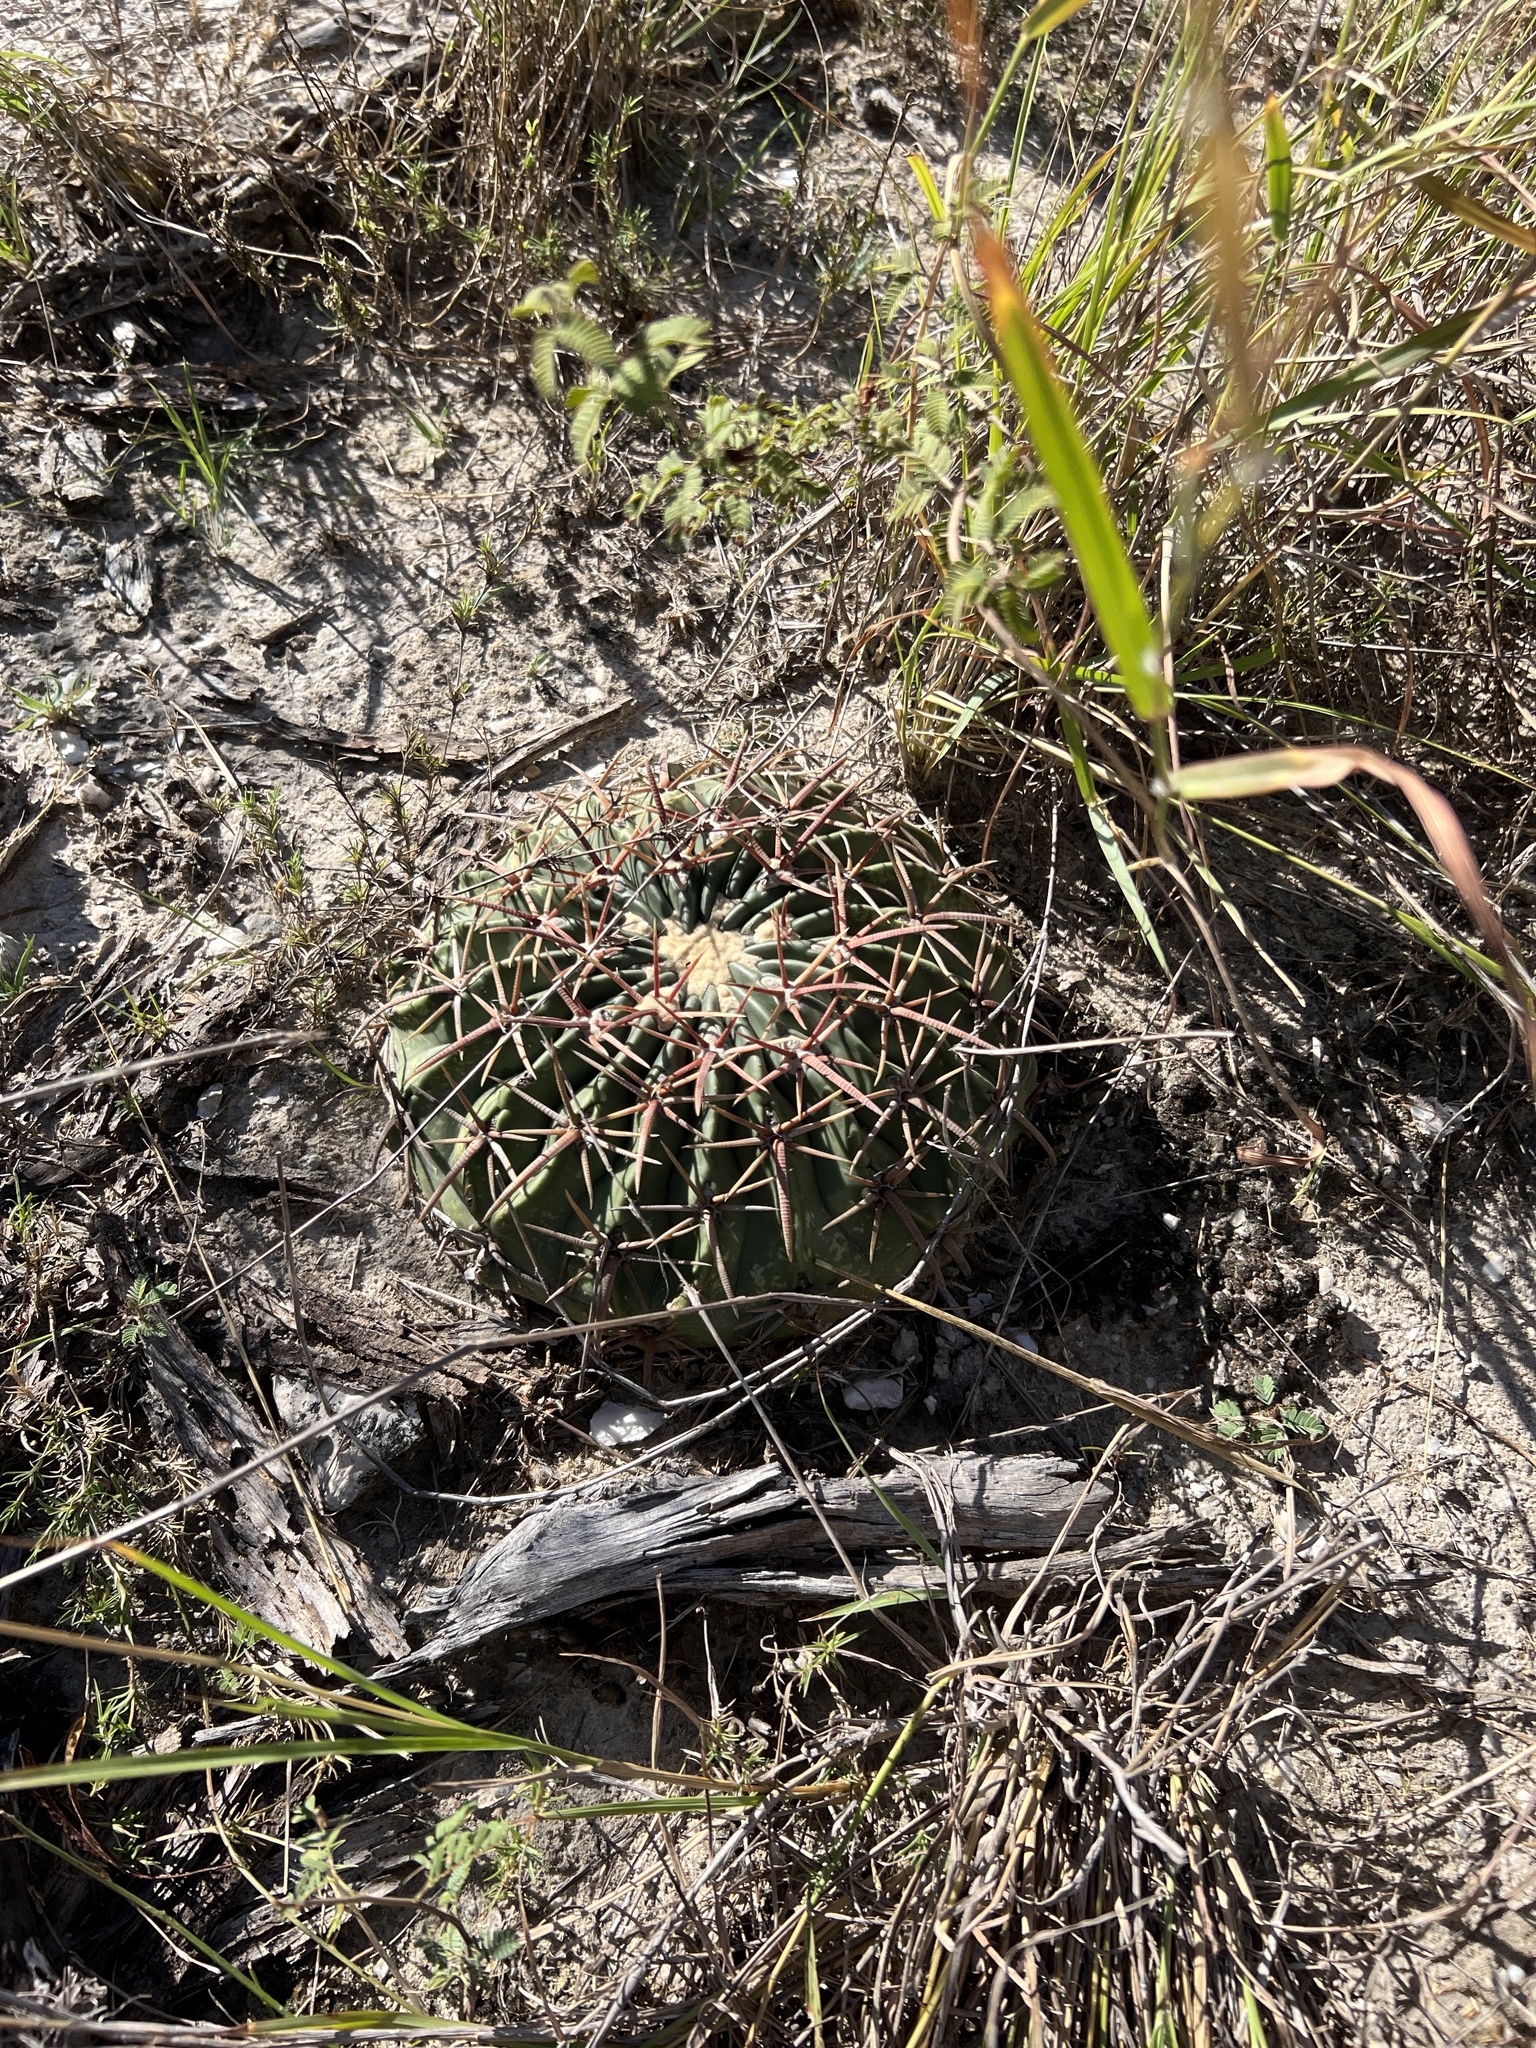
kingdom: Plantae
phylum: Tracheophyta
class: Magnoliopsida
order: Caryophyllales
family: Cactaceae
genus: Echinocactus
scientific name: Echinocactus texensis
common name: Devil's pincushion
